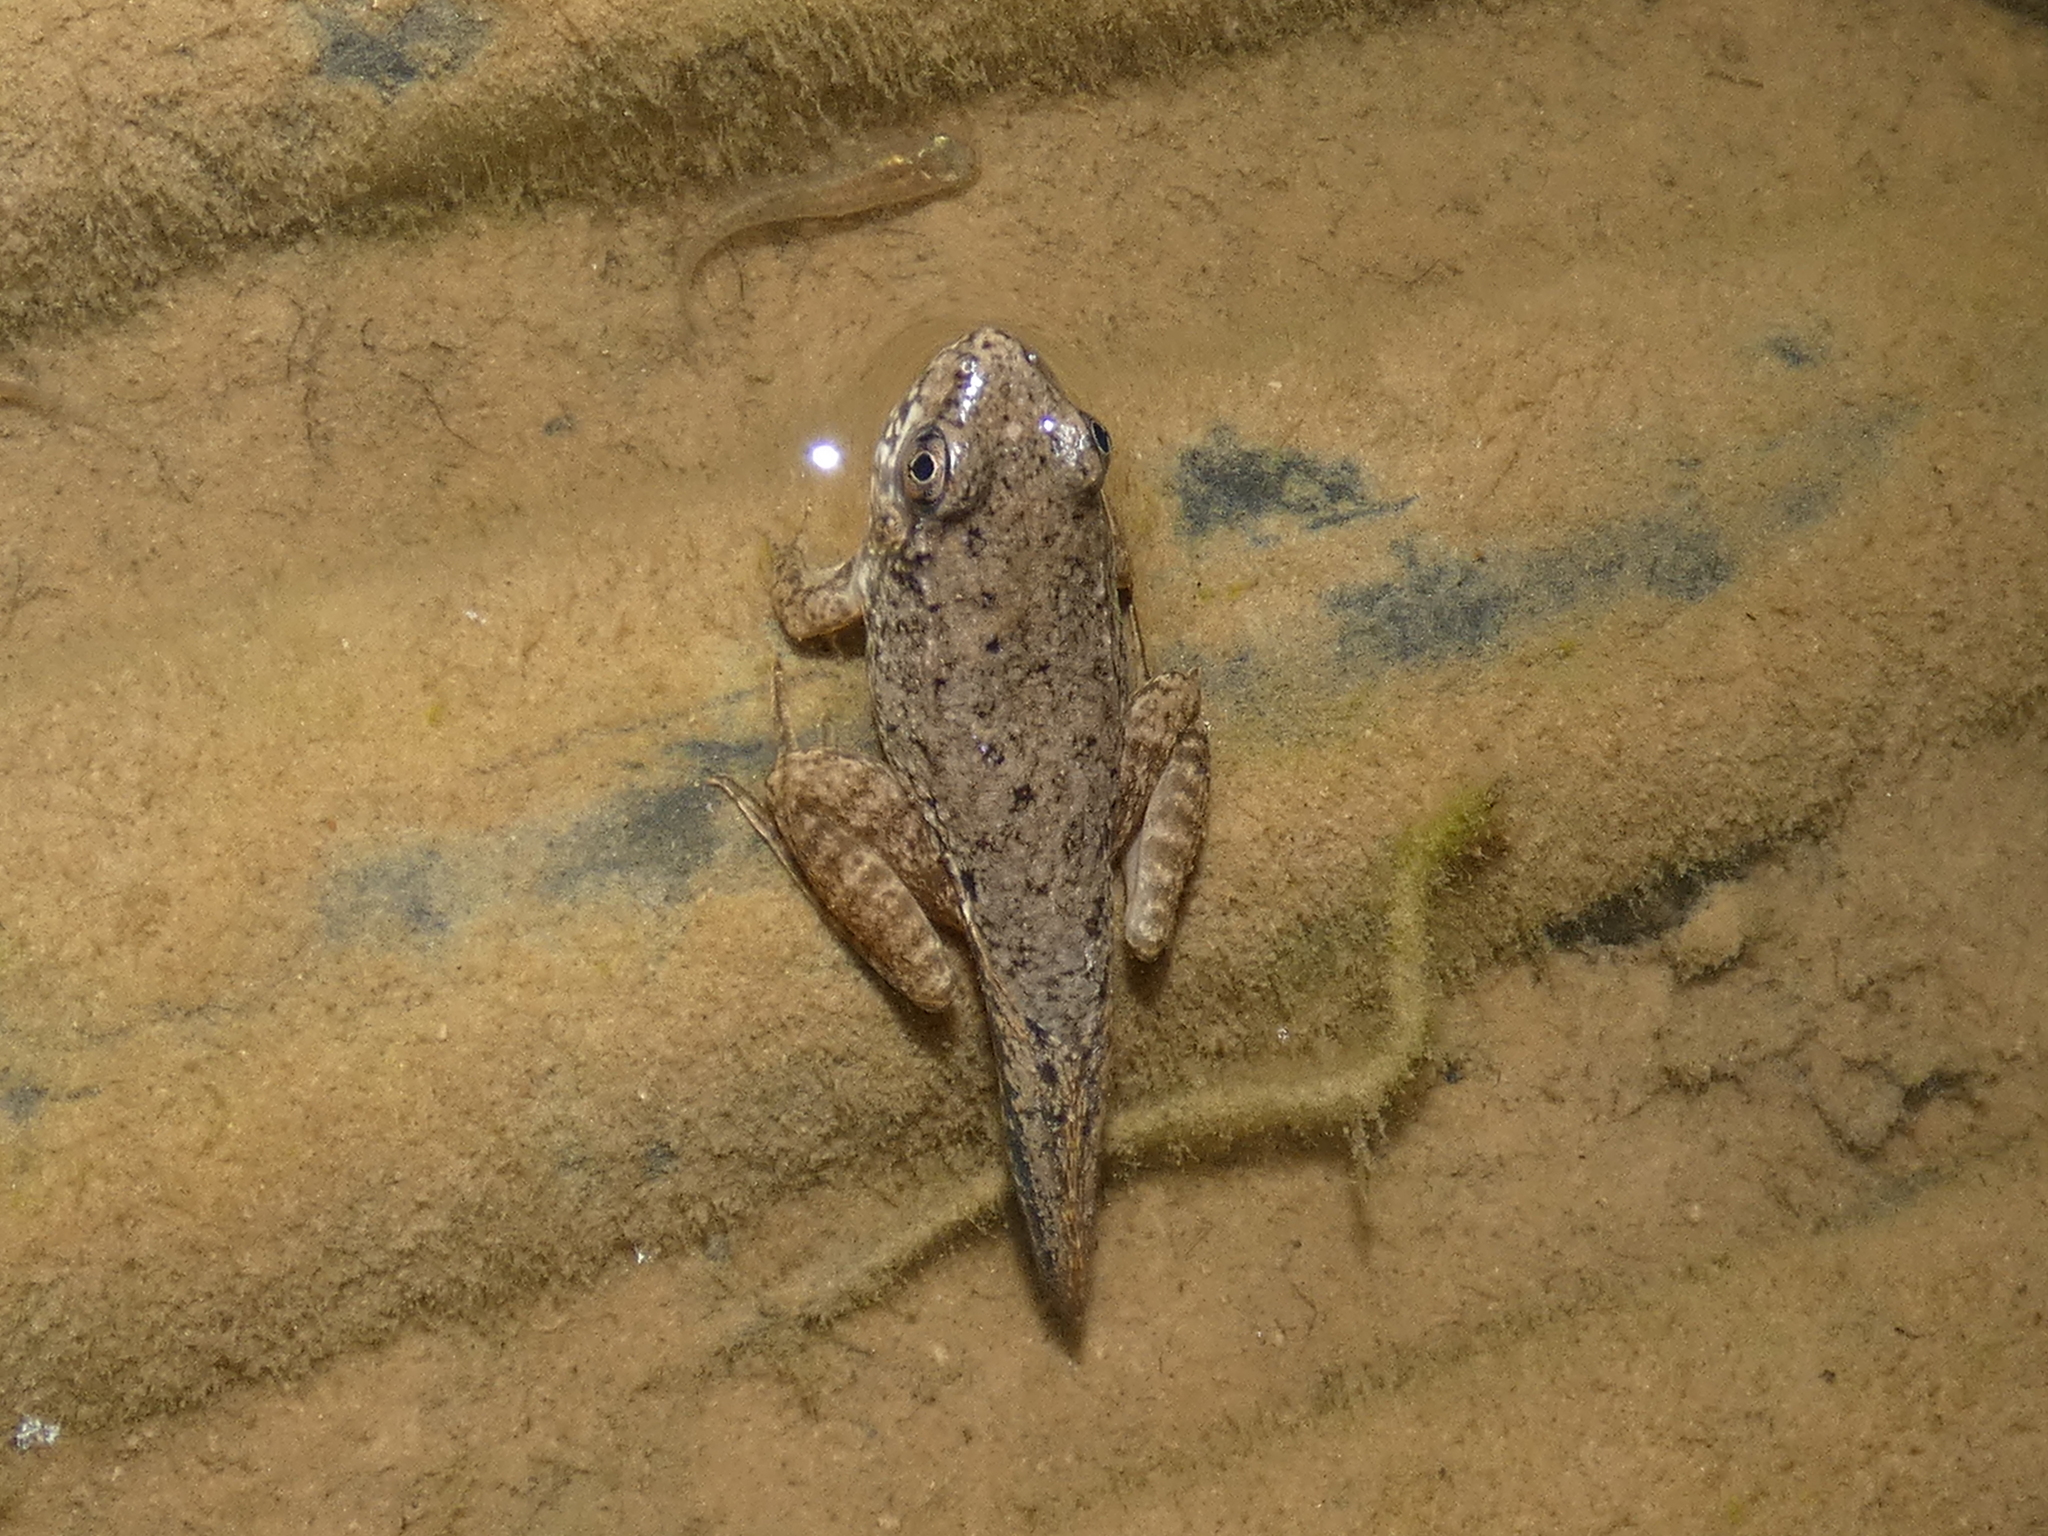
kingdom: Animalia
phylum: Chordata
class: Amphibia
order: Anura
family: Ranidae
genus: Lithobates
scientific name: Lithobates clamitans
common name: Green frog
